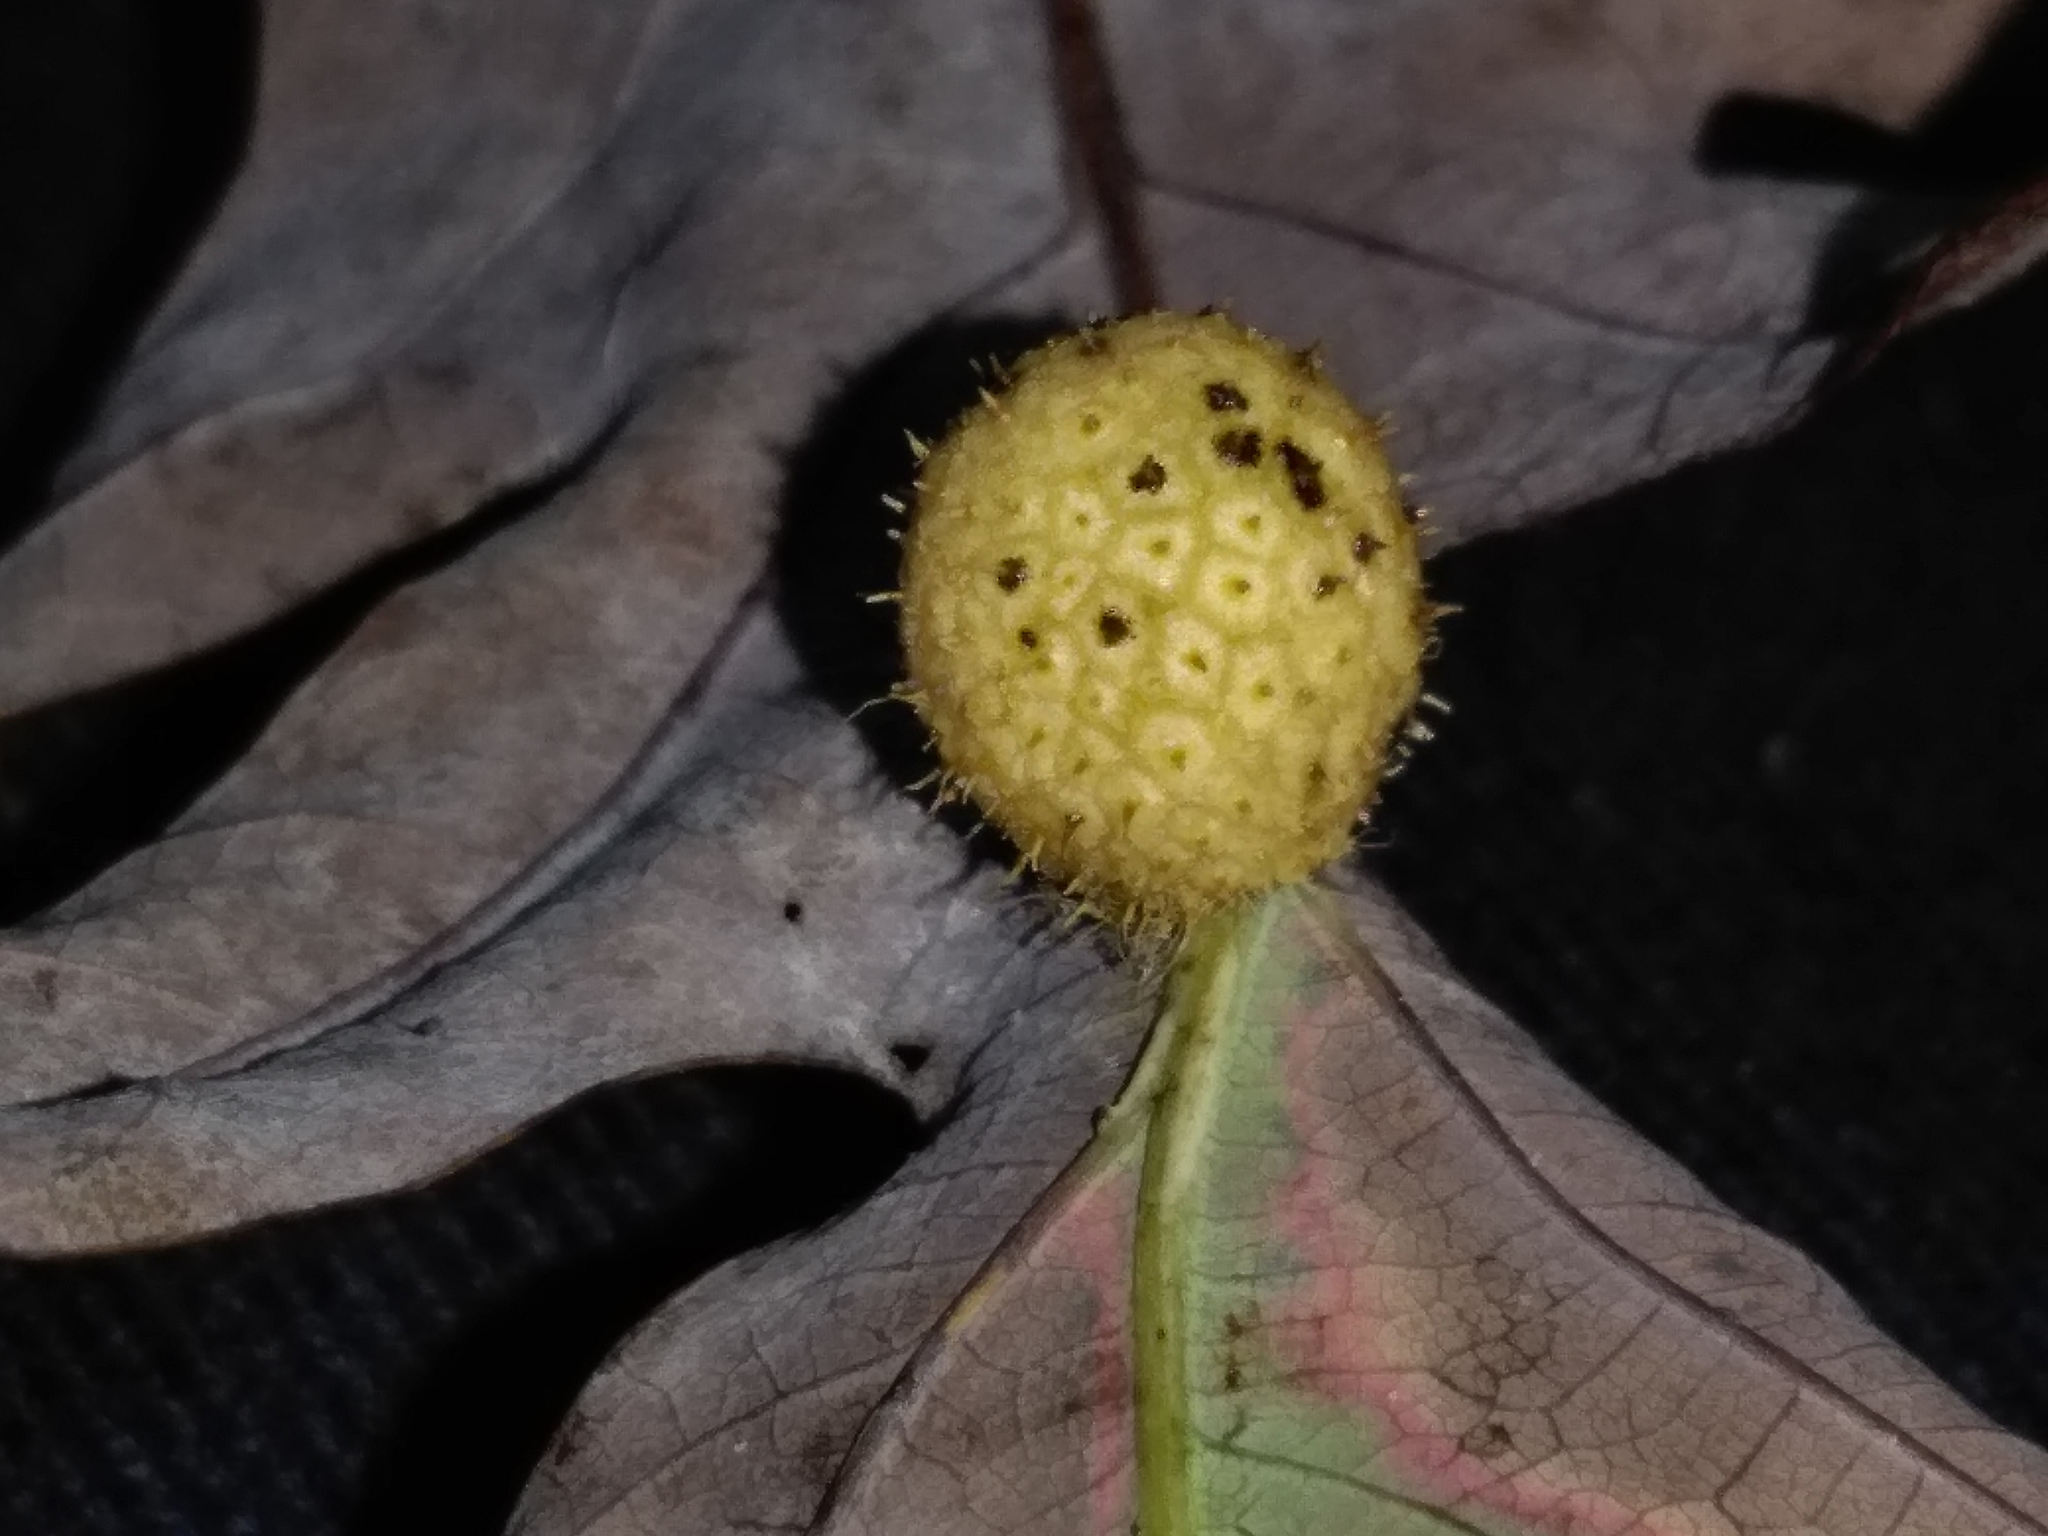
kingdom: Animalia
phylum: Arthropoda
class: Insecta
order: Hymenoptera
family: Cynipidae
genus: Acraspis
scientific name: Acraspis
